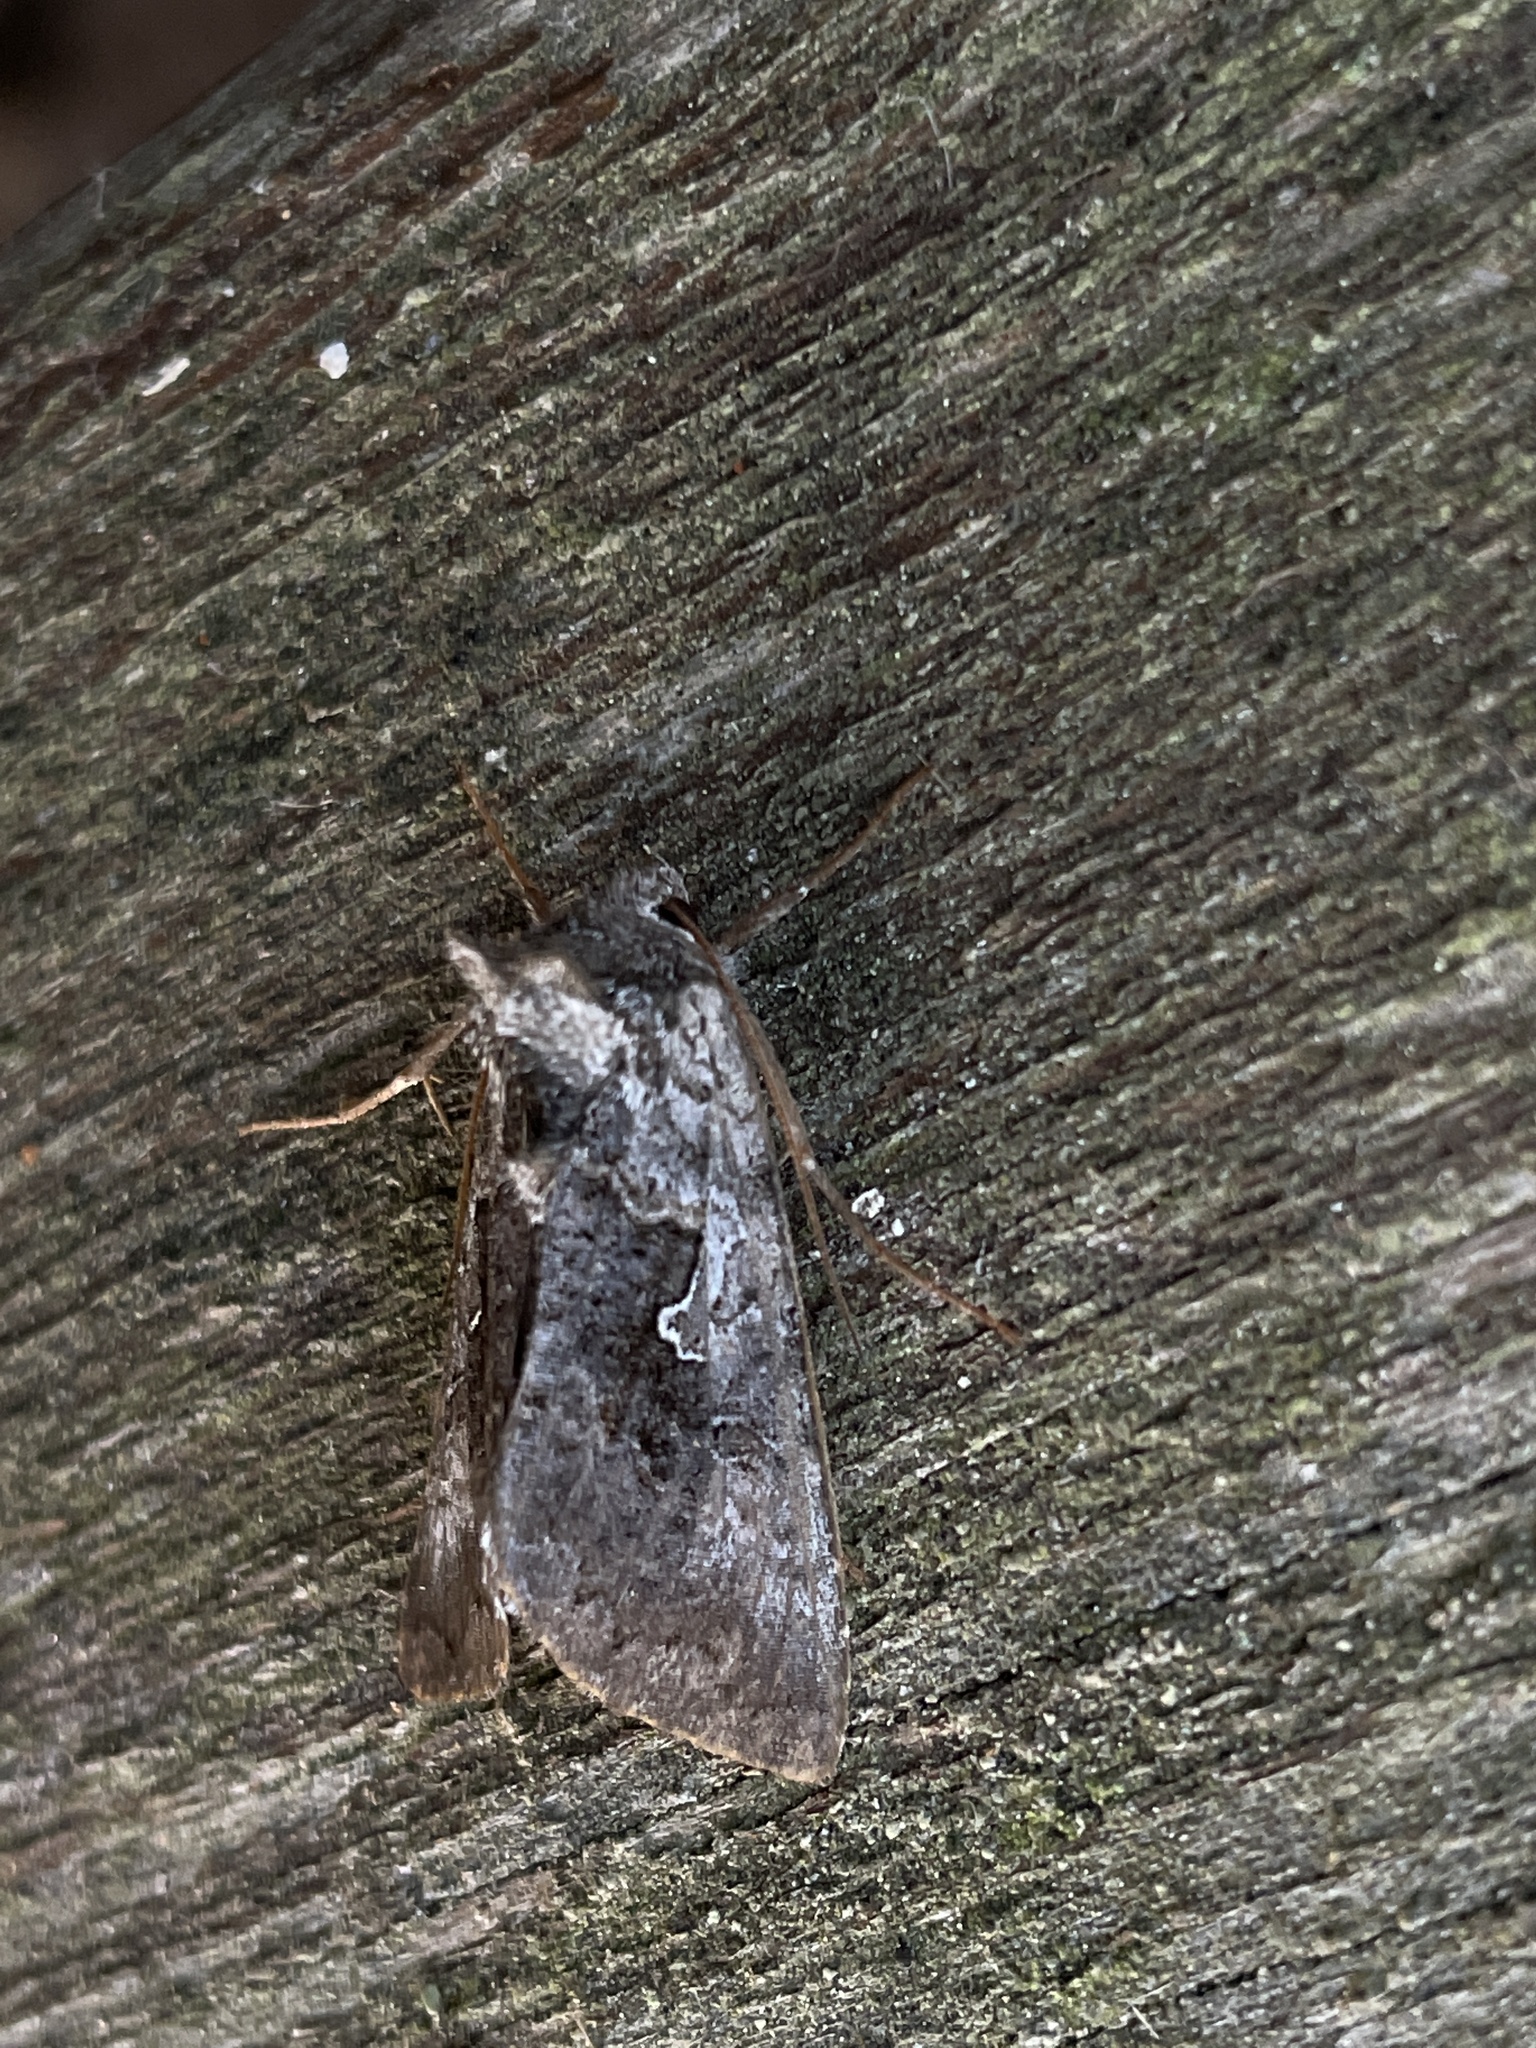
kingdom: Animalia
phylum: Arthropoda
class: Insecta
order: Lepidoptera
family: Noctuidae
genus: Syngrapha
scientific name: Syngrapha interrogationis
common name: Scarce silver y
